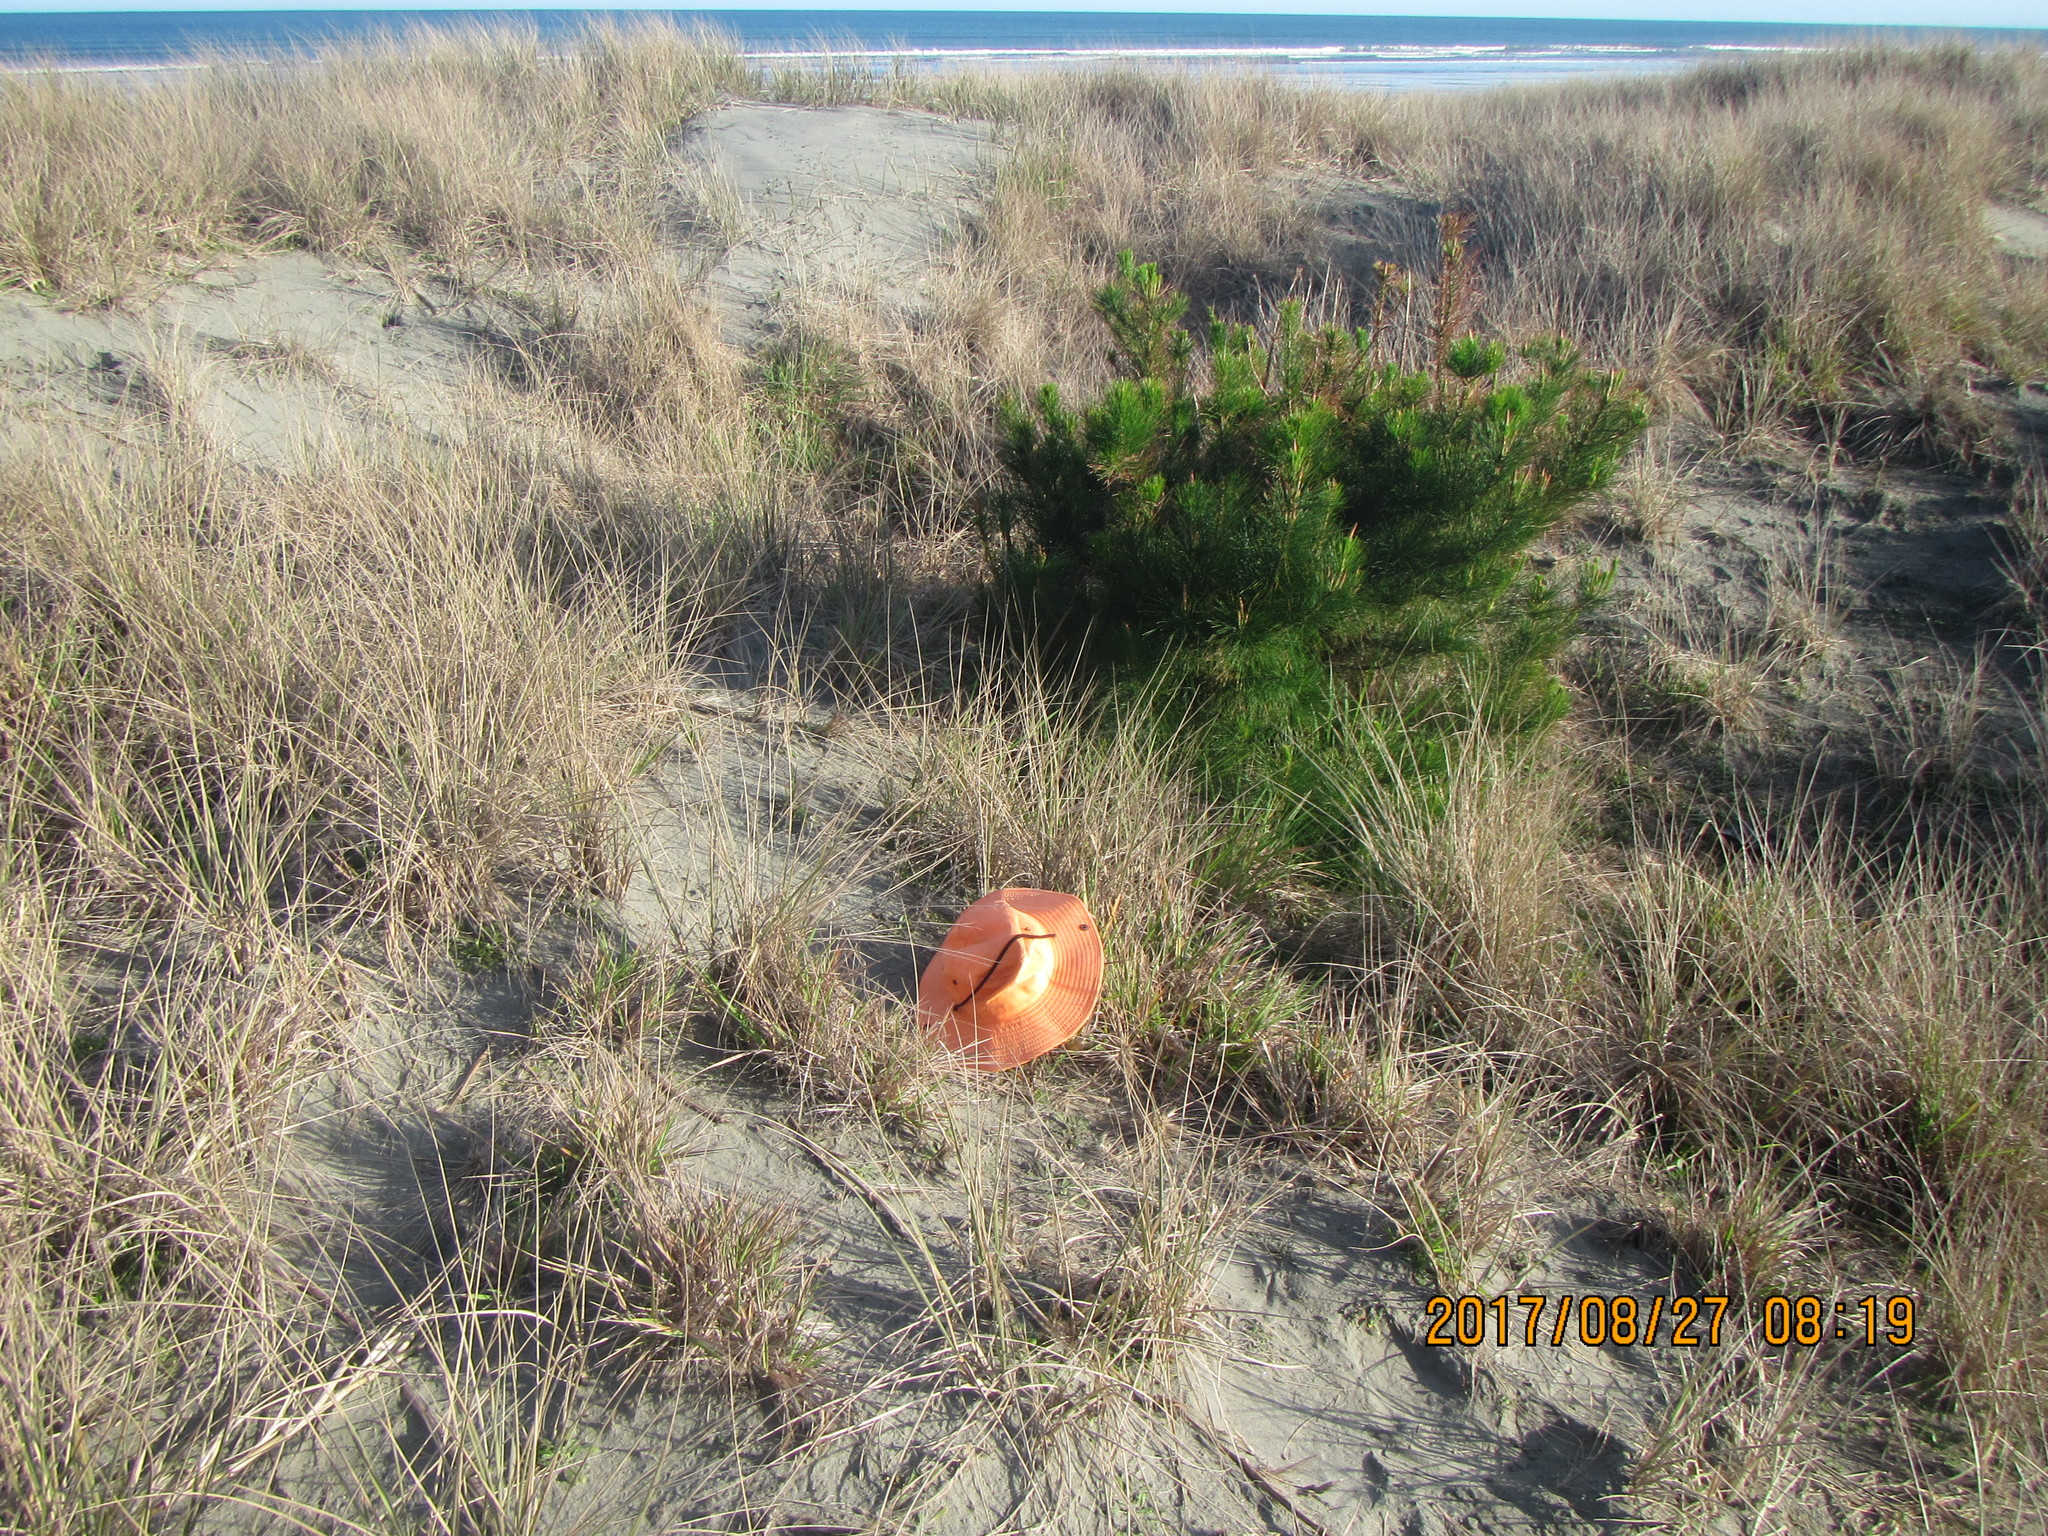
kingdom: Plantae
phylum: Tracheophyta
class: Liliopsida
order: Poales
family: Poaceae
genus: Lachnagrostis
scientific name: Lachnagrostis billardierei
